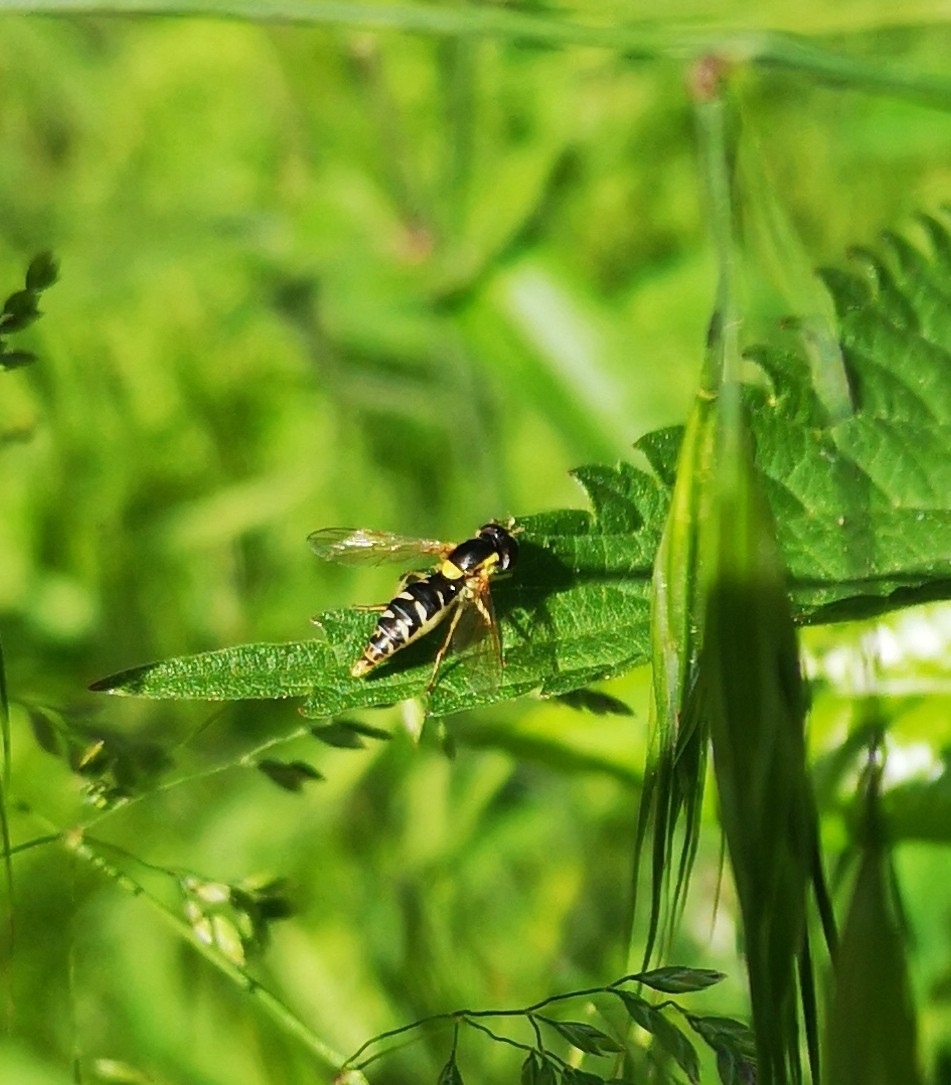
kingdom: Animalia
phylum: Arthropoda
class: Insecta
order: Diptera
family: Syrphidae
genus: Sphaerophoria
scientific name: Sphaerophoria
